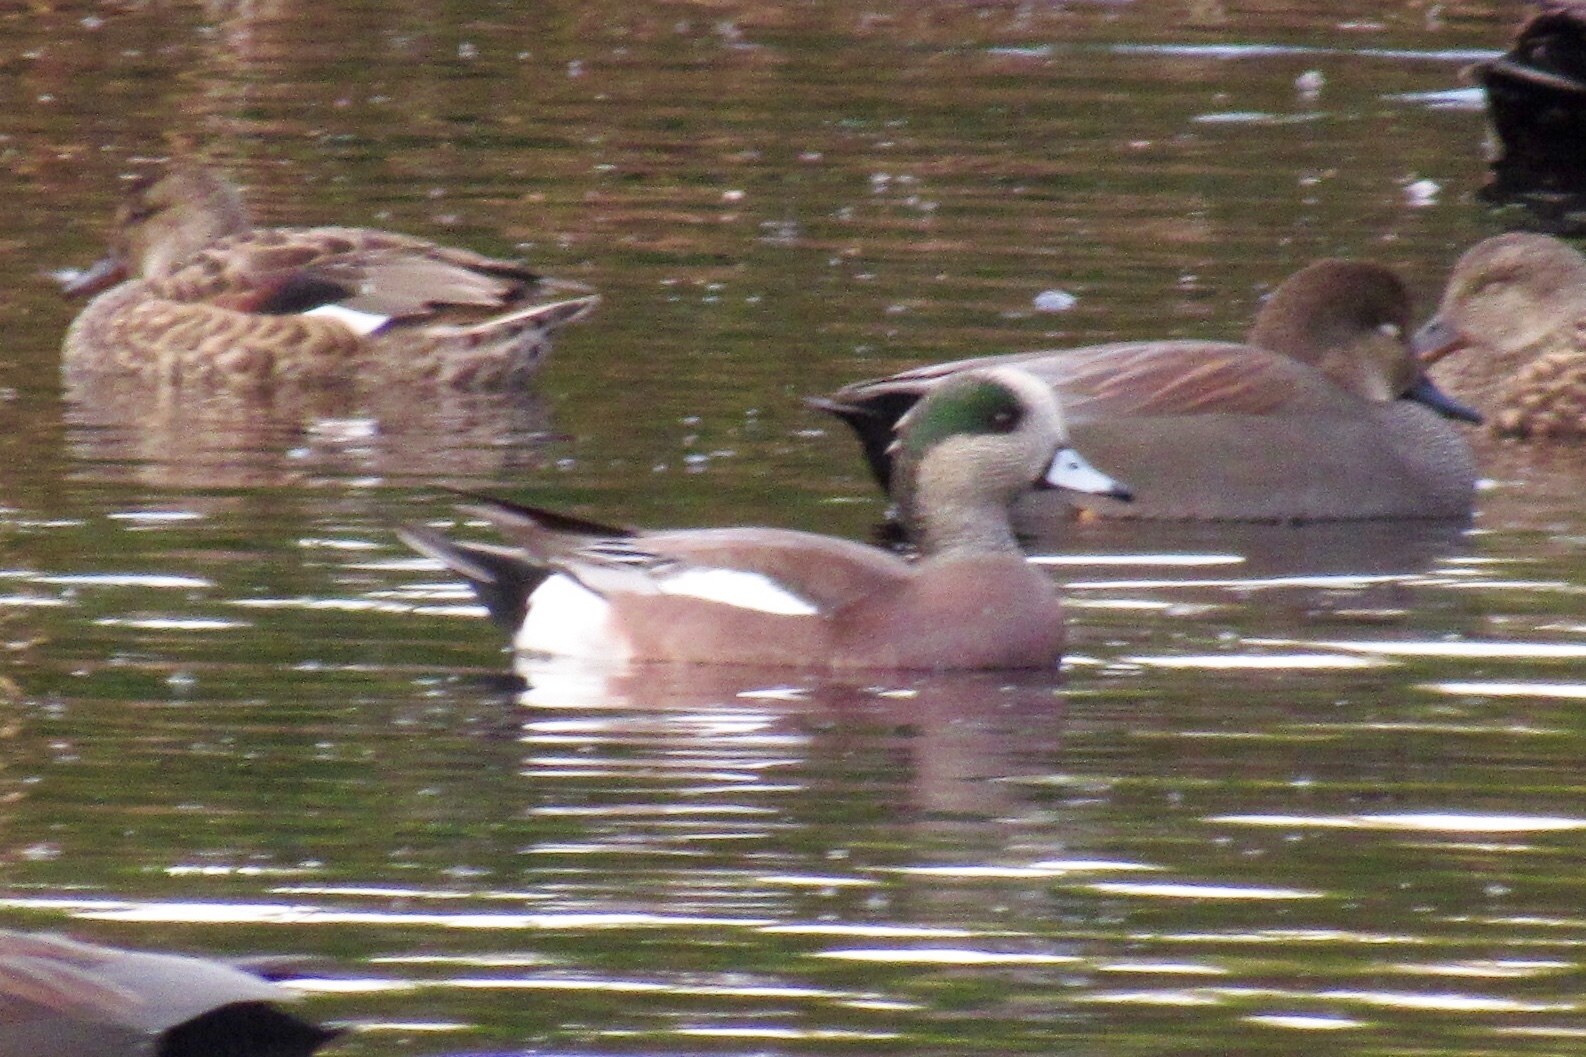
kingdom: Animalia
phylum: Chordata
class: Aves
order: Anseriformes
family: Anatidae
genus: Mareca
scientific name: Mareca americana
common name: American wigeon
